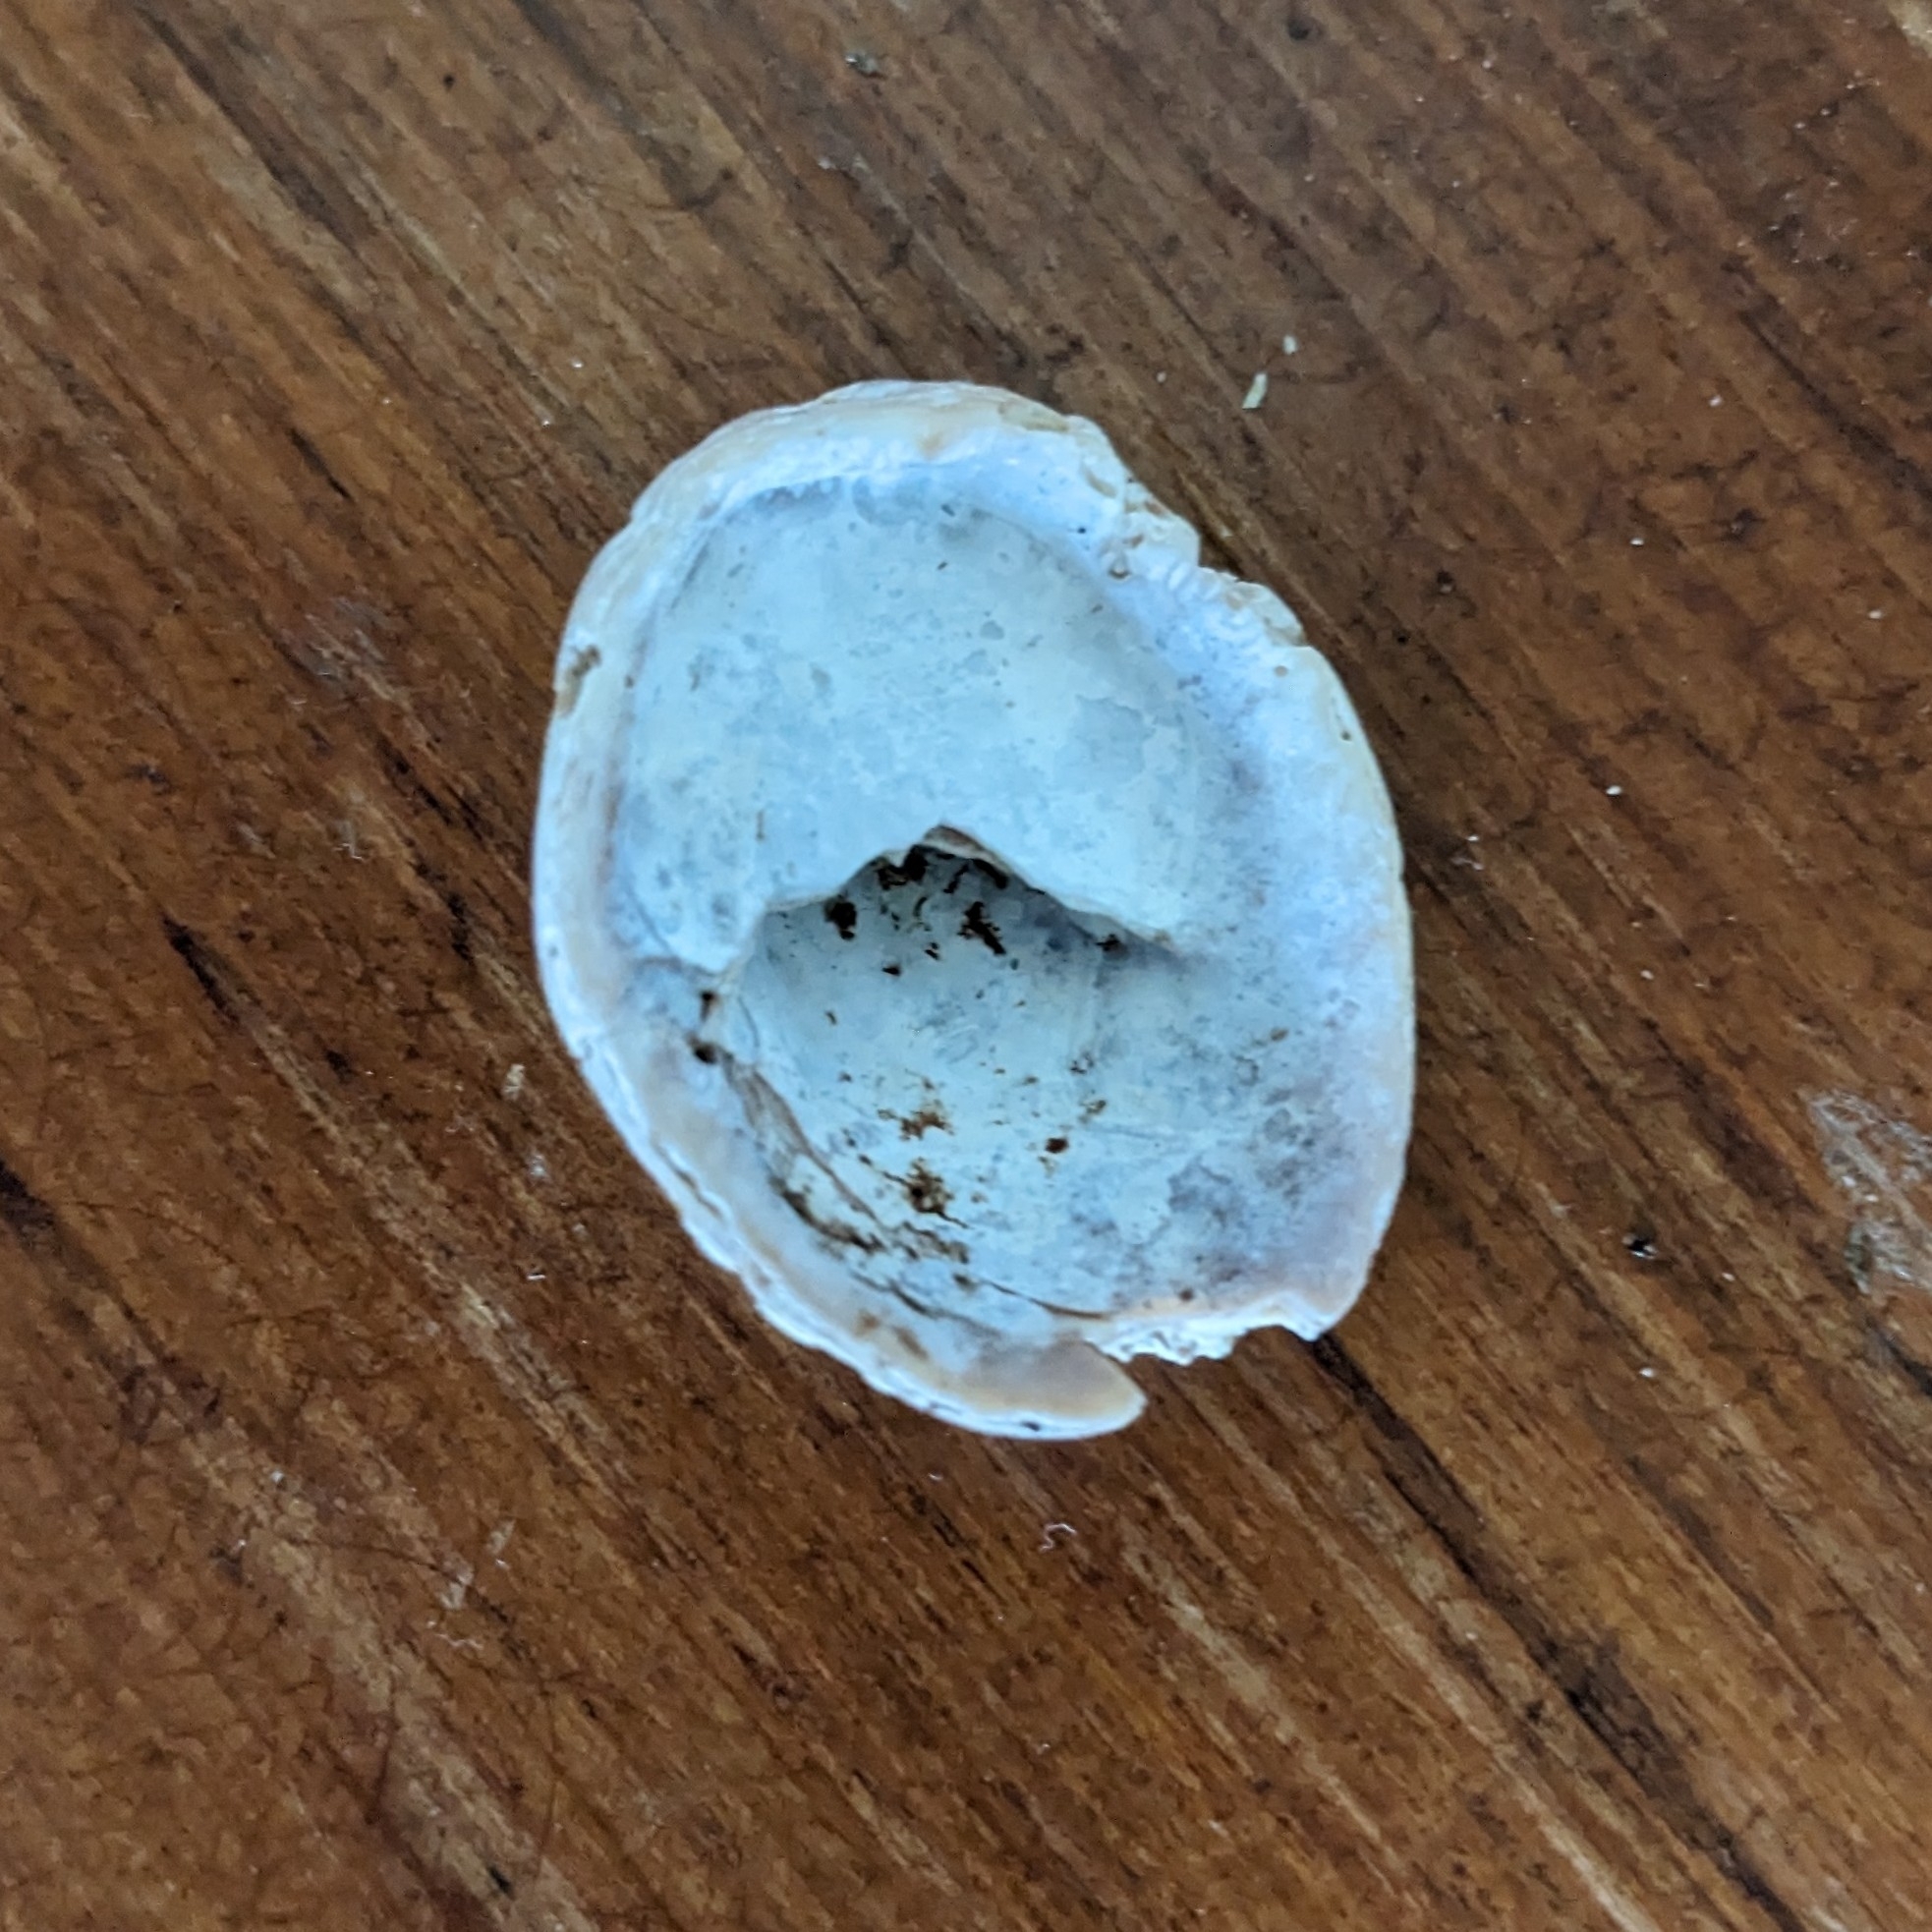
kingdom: Animalia
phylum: Mollusca
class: Gastropoda
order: Littorinimorpha
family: Calyptraeidae
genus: Crepidula
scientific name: Crepidula fornicata
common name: Slipper limpet
